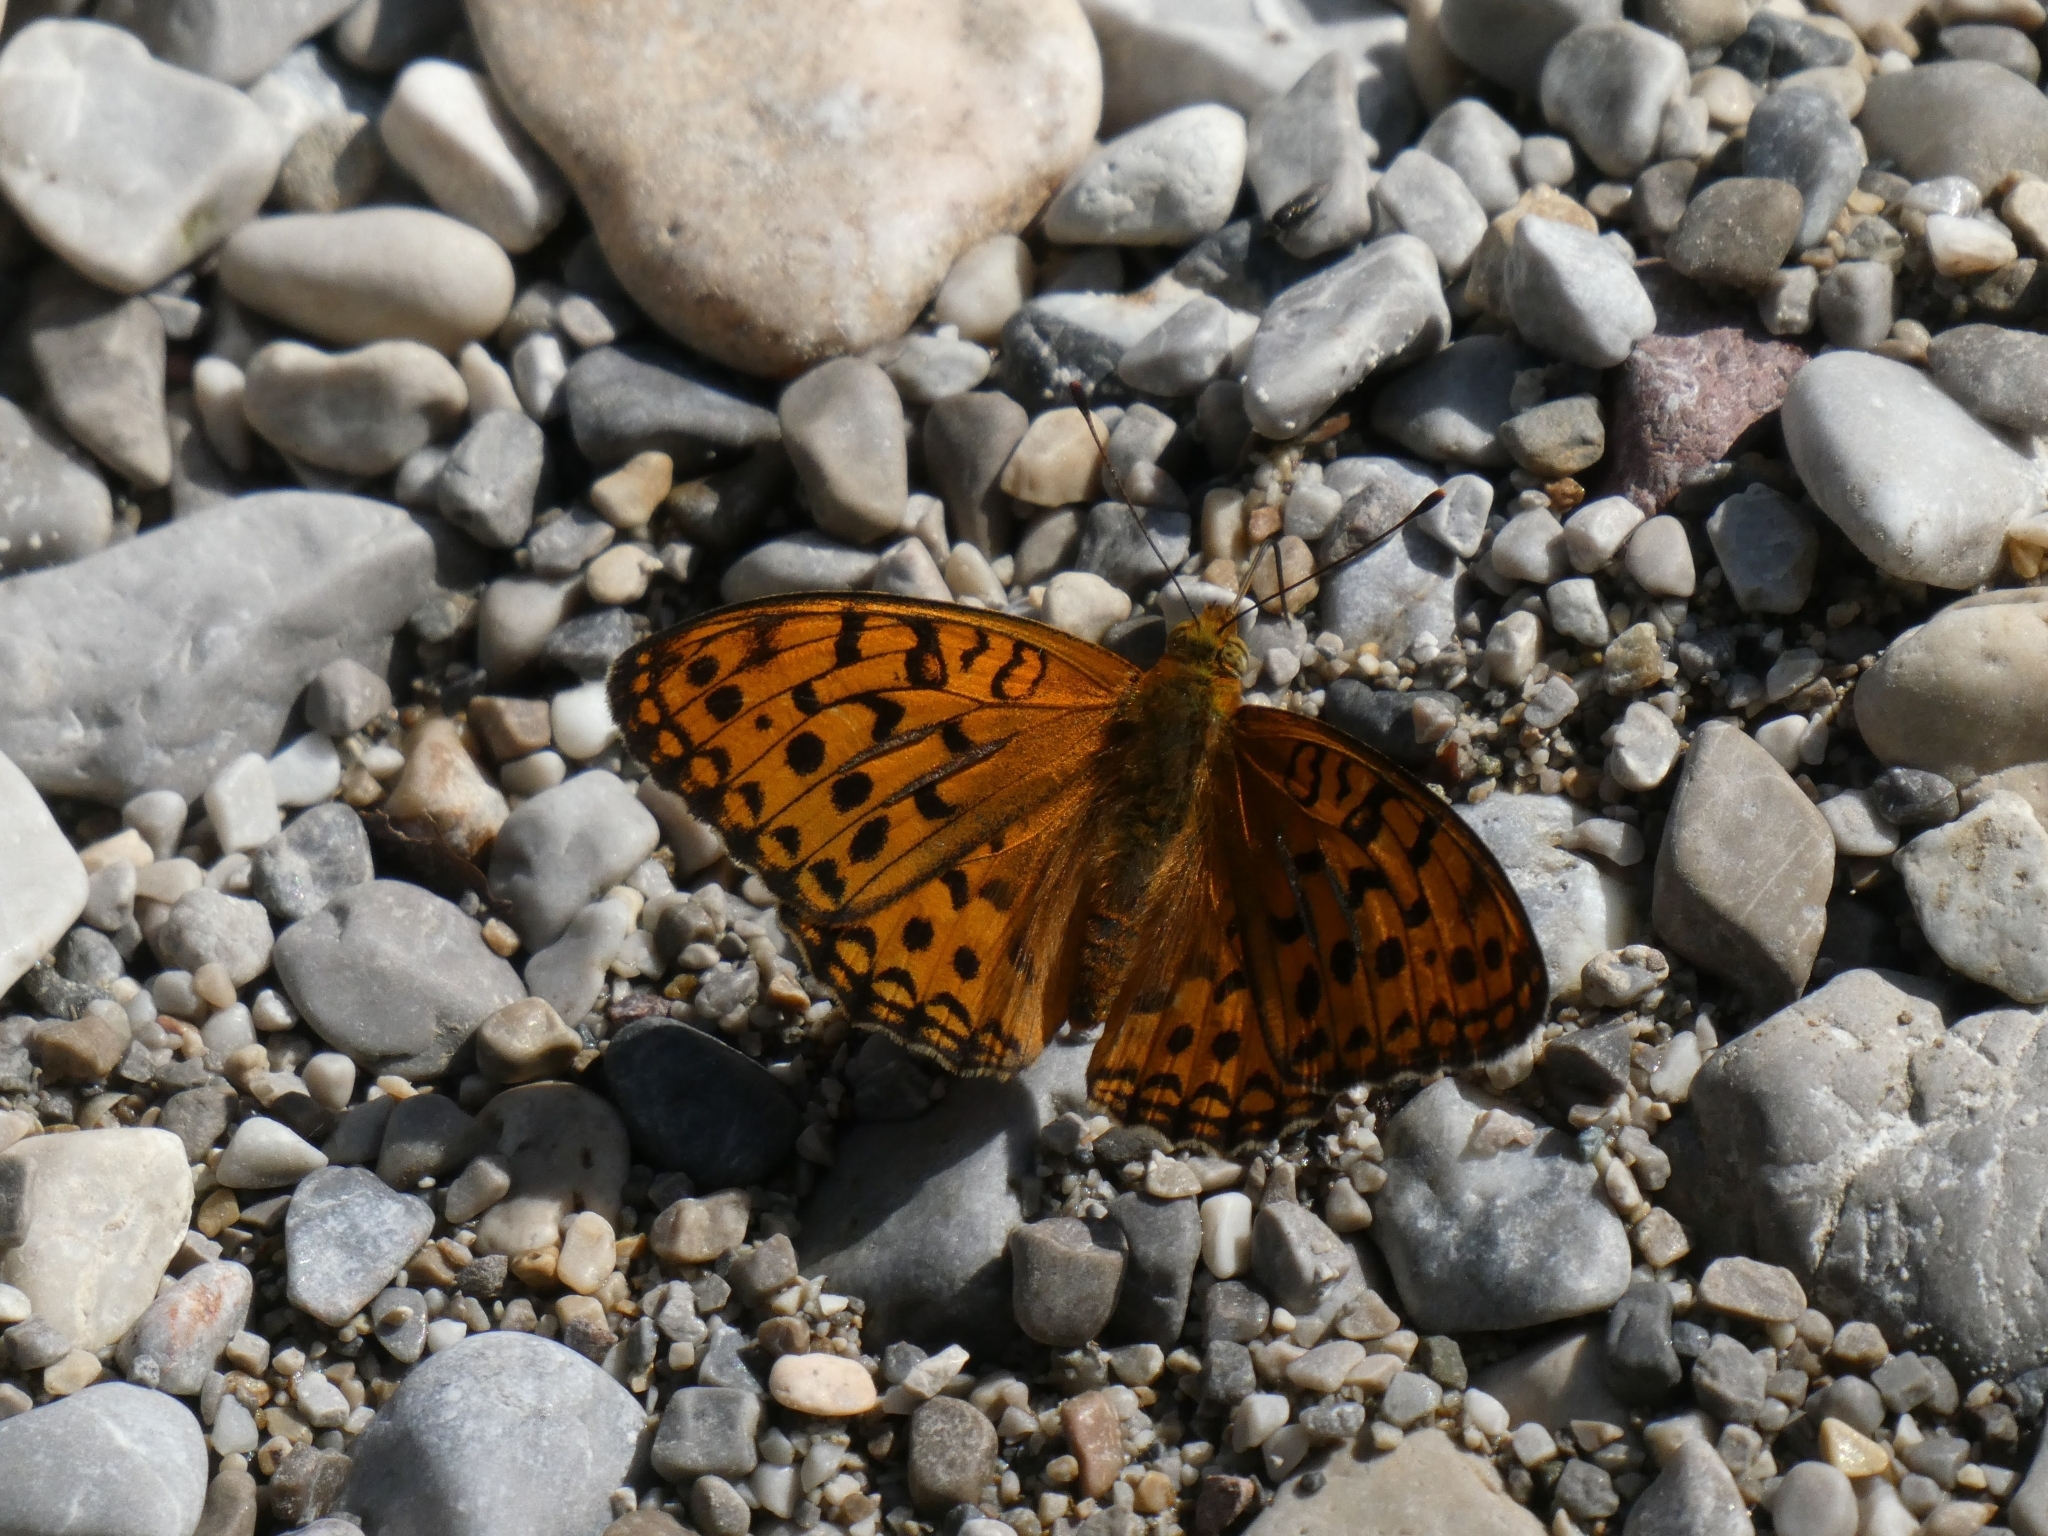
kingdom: Animalia
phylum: Arthropoda
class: Insecta
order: Lepidoptera
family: Nymphalidae
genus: Fabriciana
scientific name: Fabriciana adippe
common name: High brown fritillary
